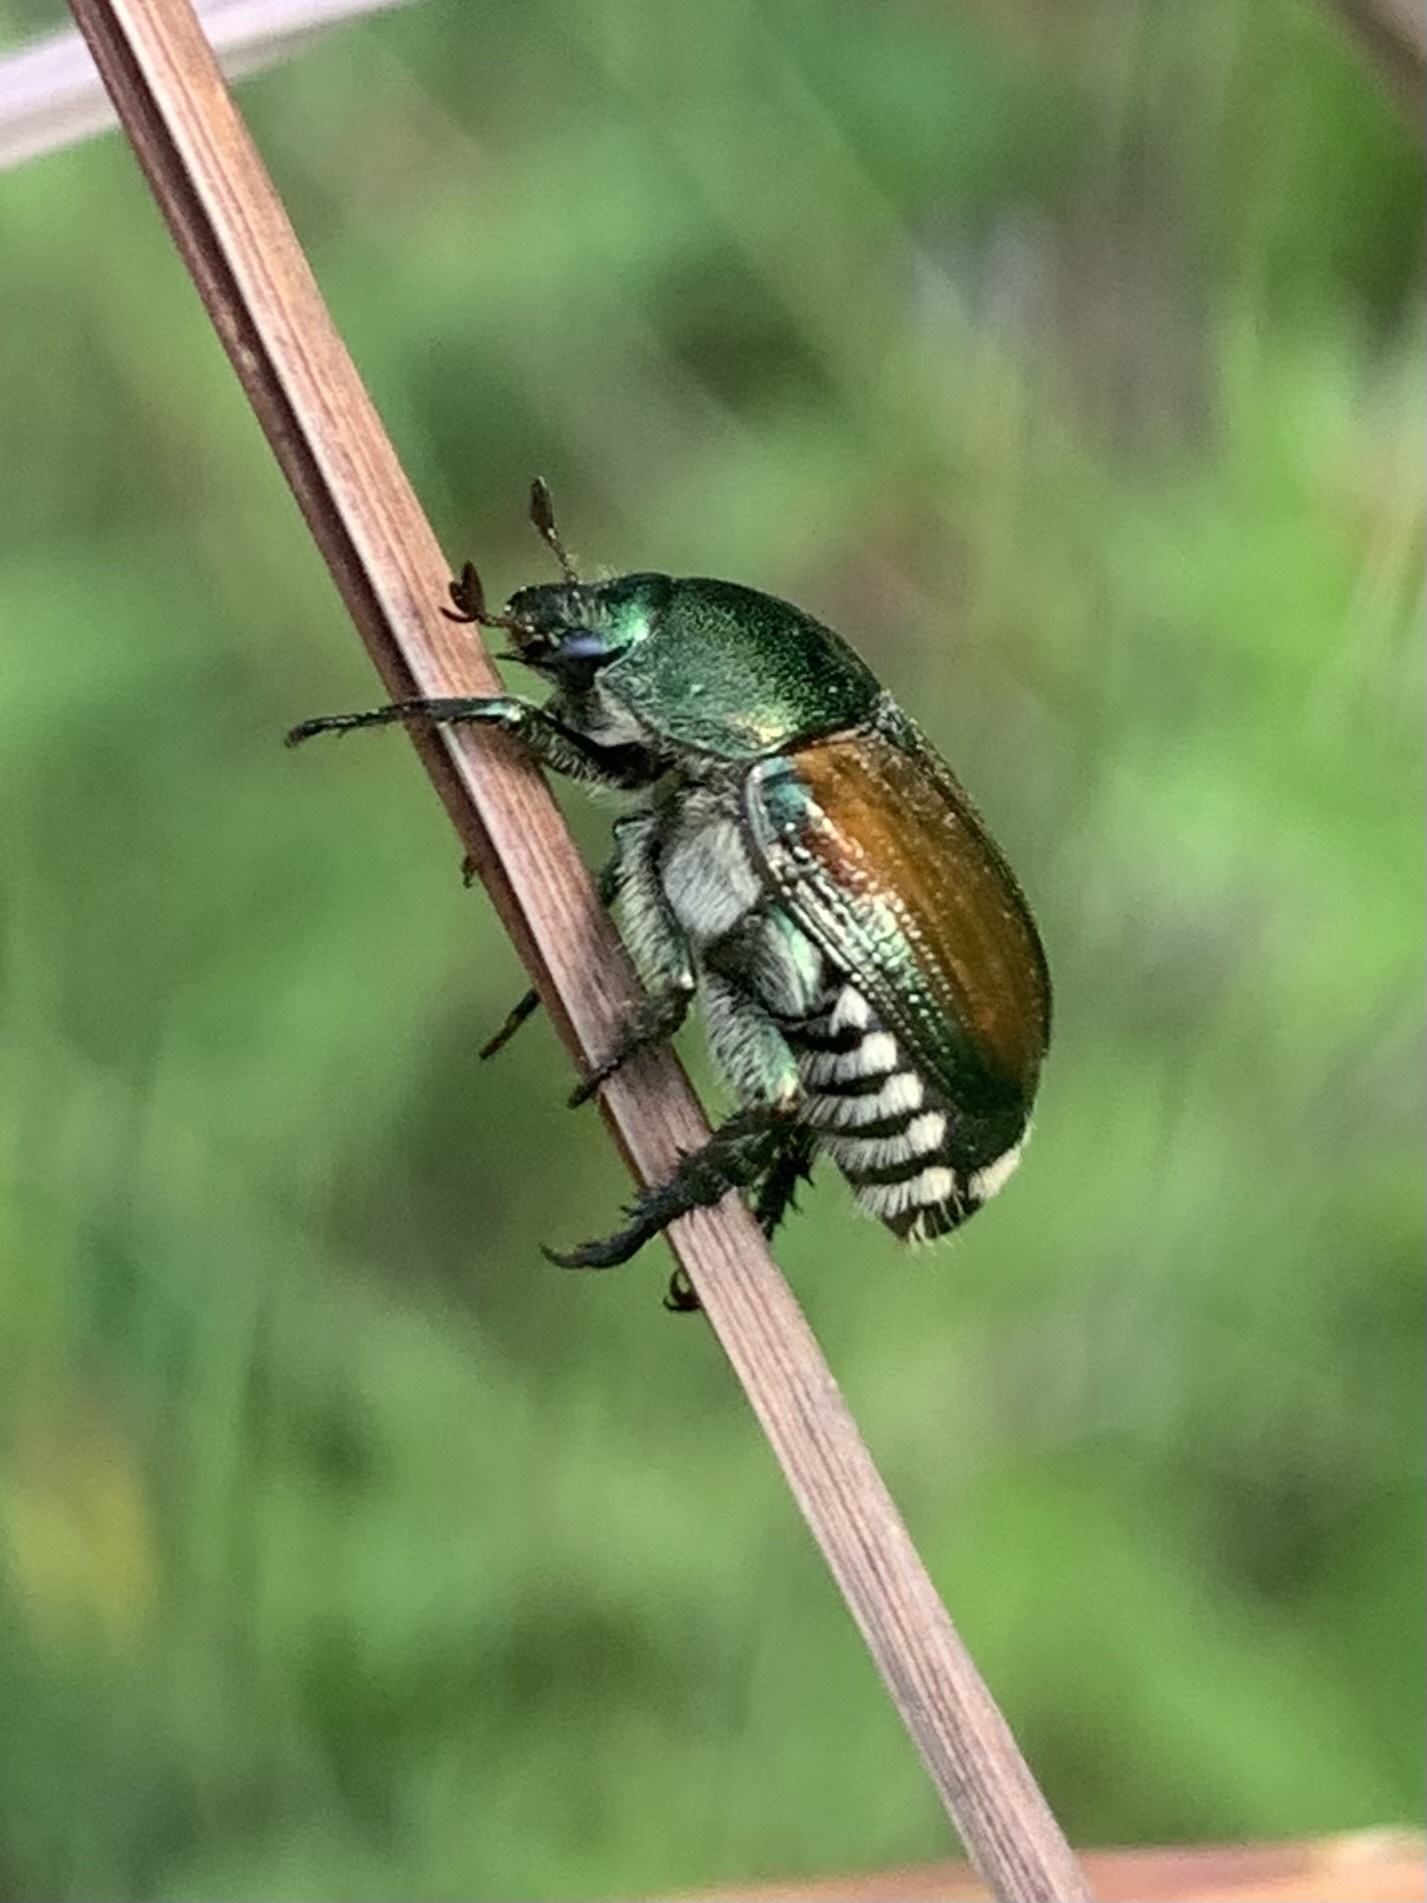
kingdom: Animalia
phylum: Arthropoda
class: Insecta
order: Coleoptera
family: Scarabaeidae
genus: Popillia
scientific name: Popillia japonica
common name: Japanese beetle
